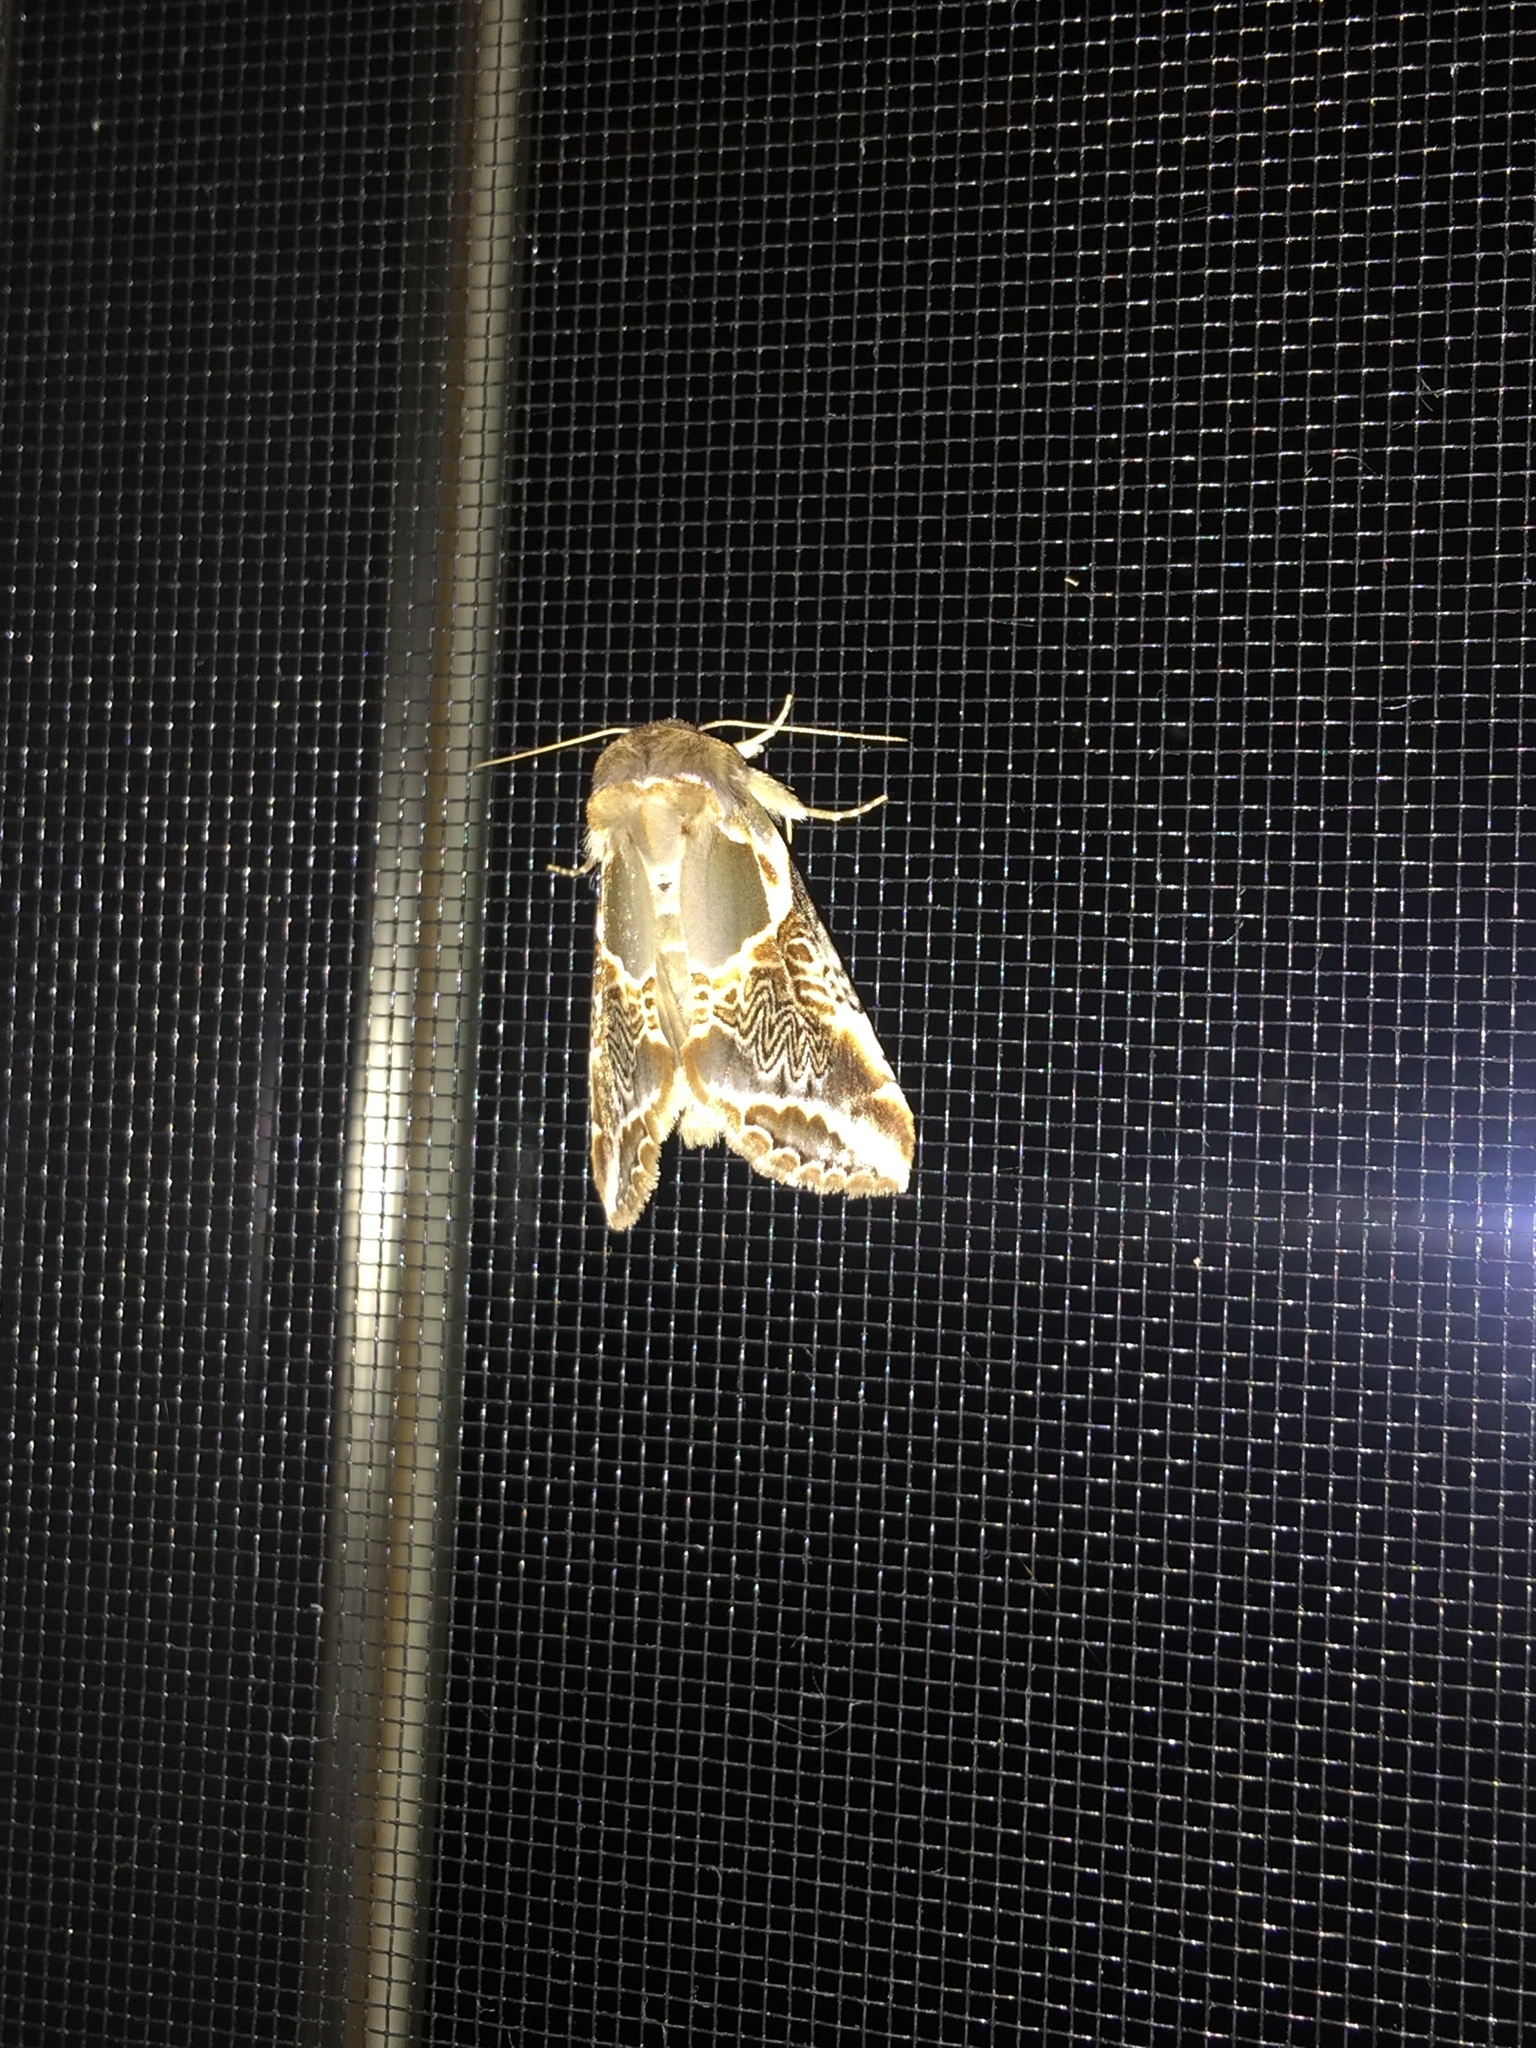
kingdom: Animalia
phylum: Arthropoda
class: Insecta
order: Lepidoptera
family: Drepanidae
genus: Habrosyne
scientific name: Habrosyne scripta
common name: Lettered habrosyne moth
